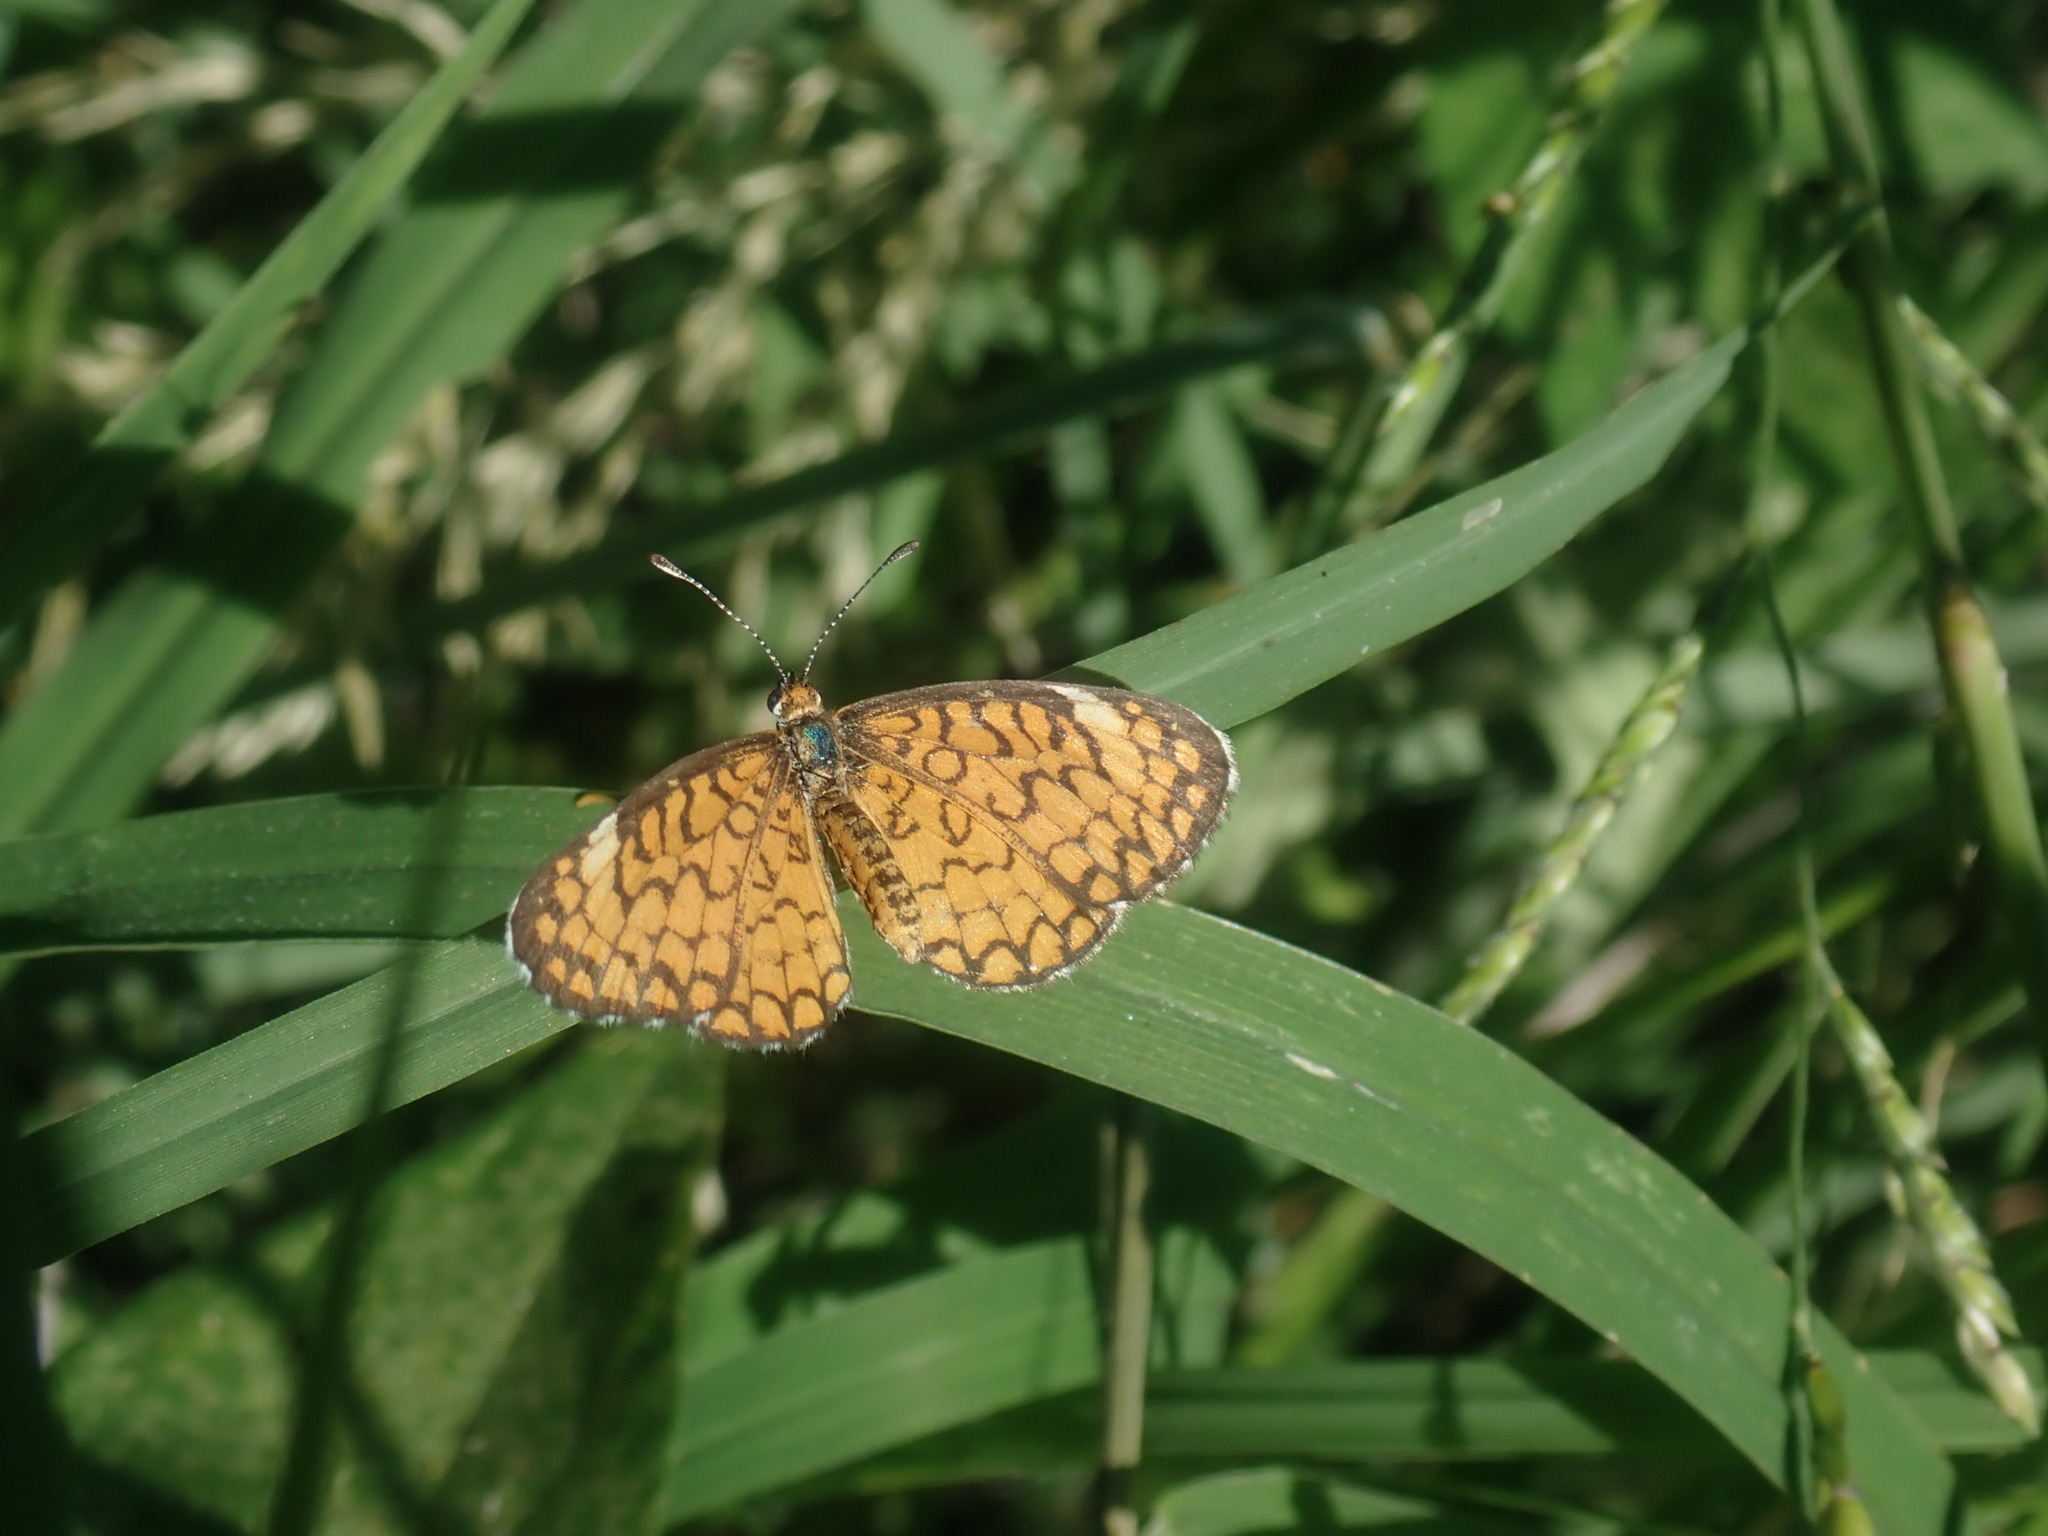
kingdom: Animalia
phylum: Arthropoda
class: Insecta
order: Lepidoptera
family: Nymphalidae
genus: Dymasia
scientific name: Dymasia dymas
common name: Tiny checkerspot
